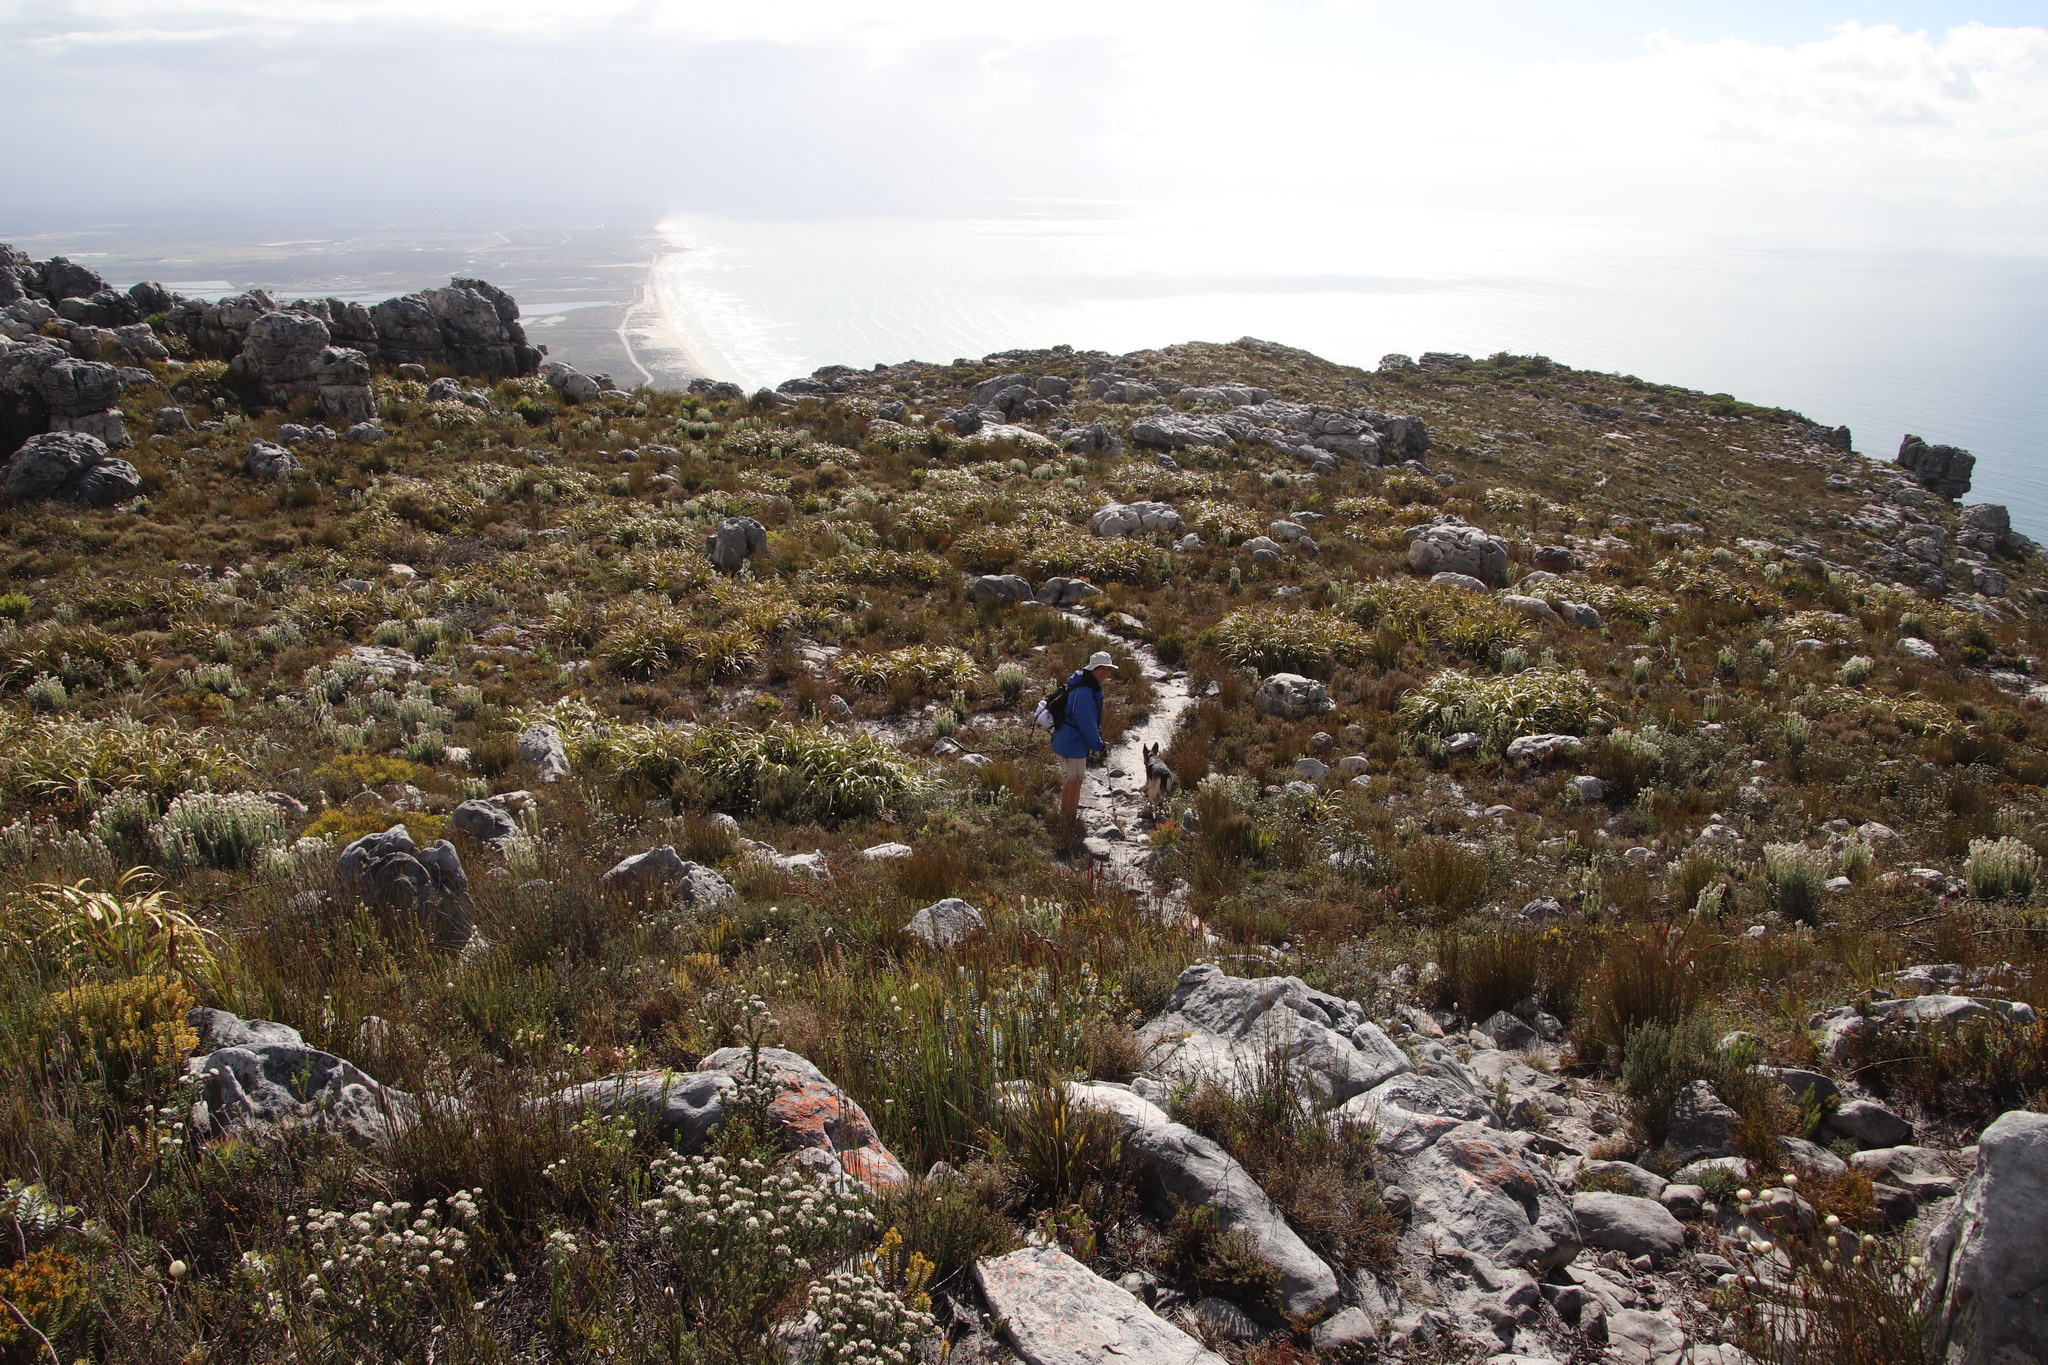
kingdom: Plantae
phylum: Tracheophyta
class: Liliopsida
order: Poales
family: Cyperaceae
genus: Tetraria
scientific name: Tetraria thermalis
